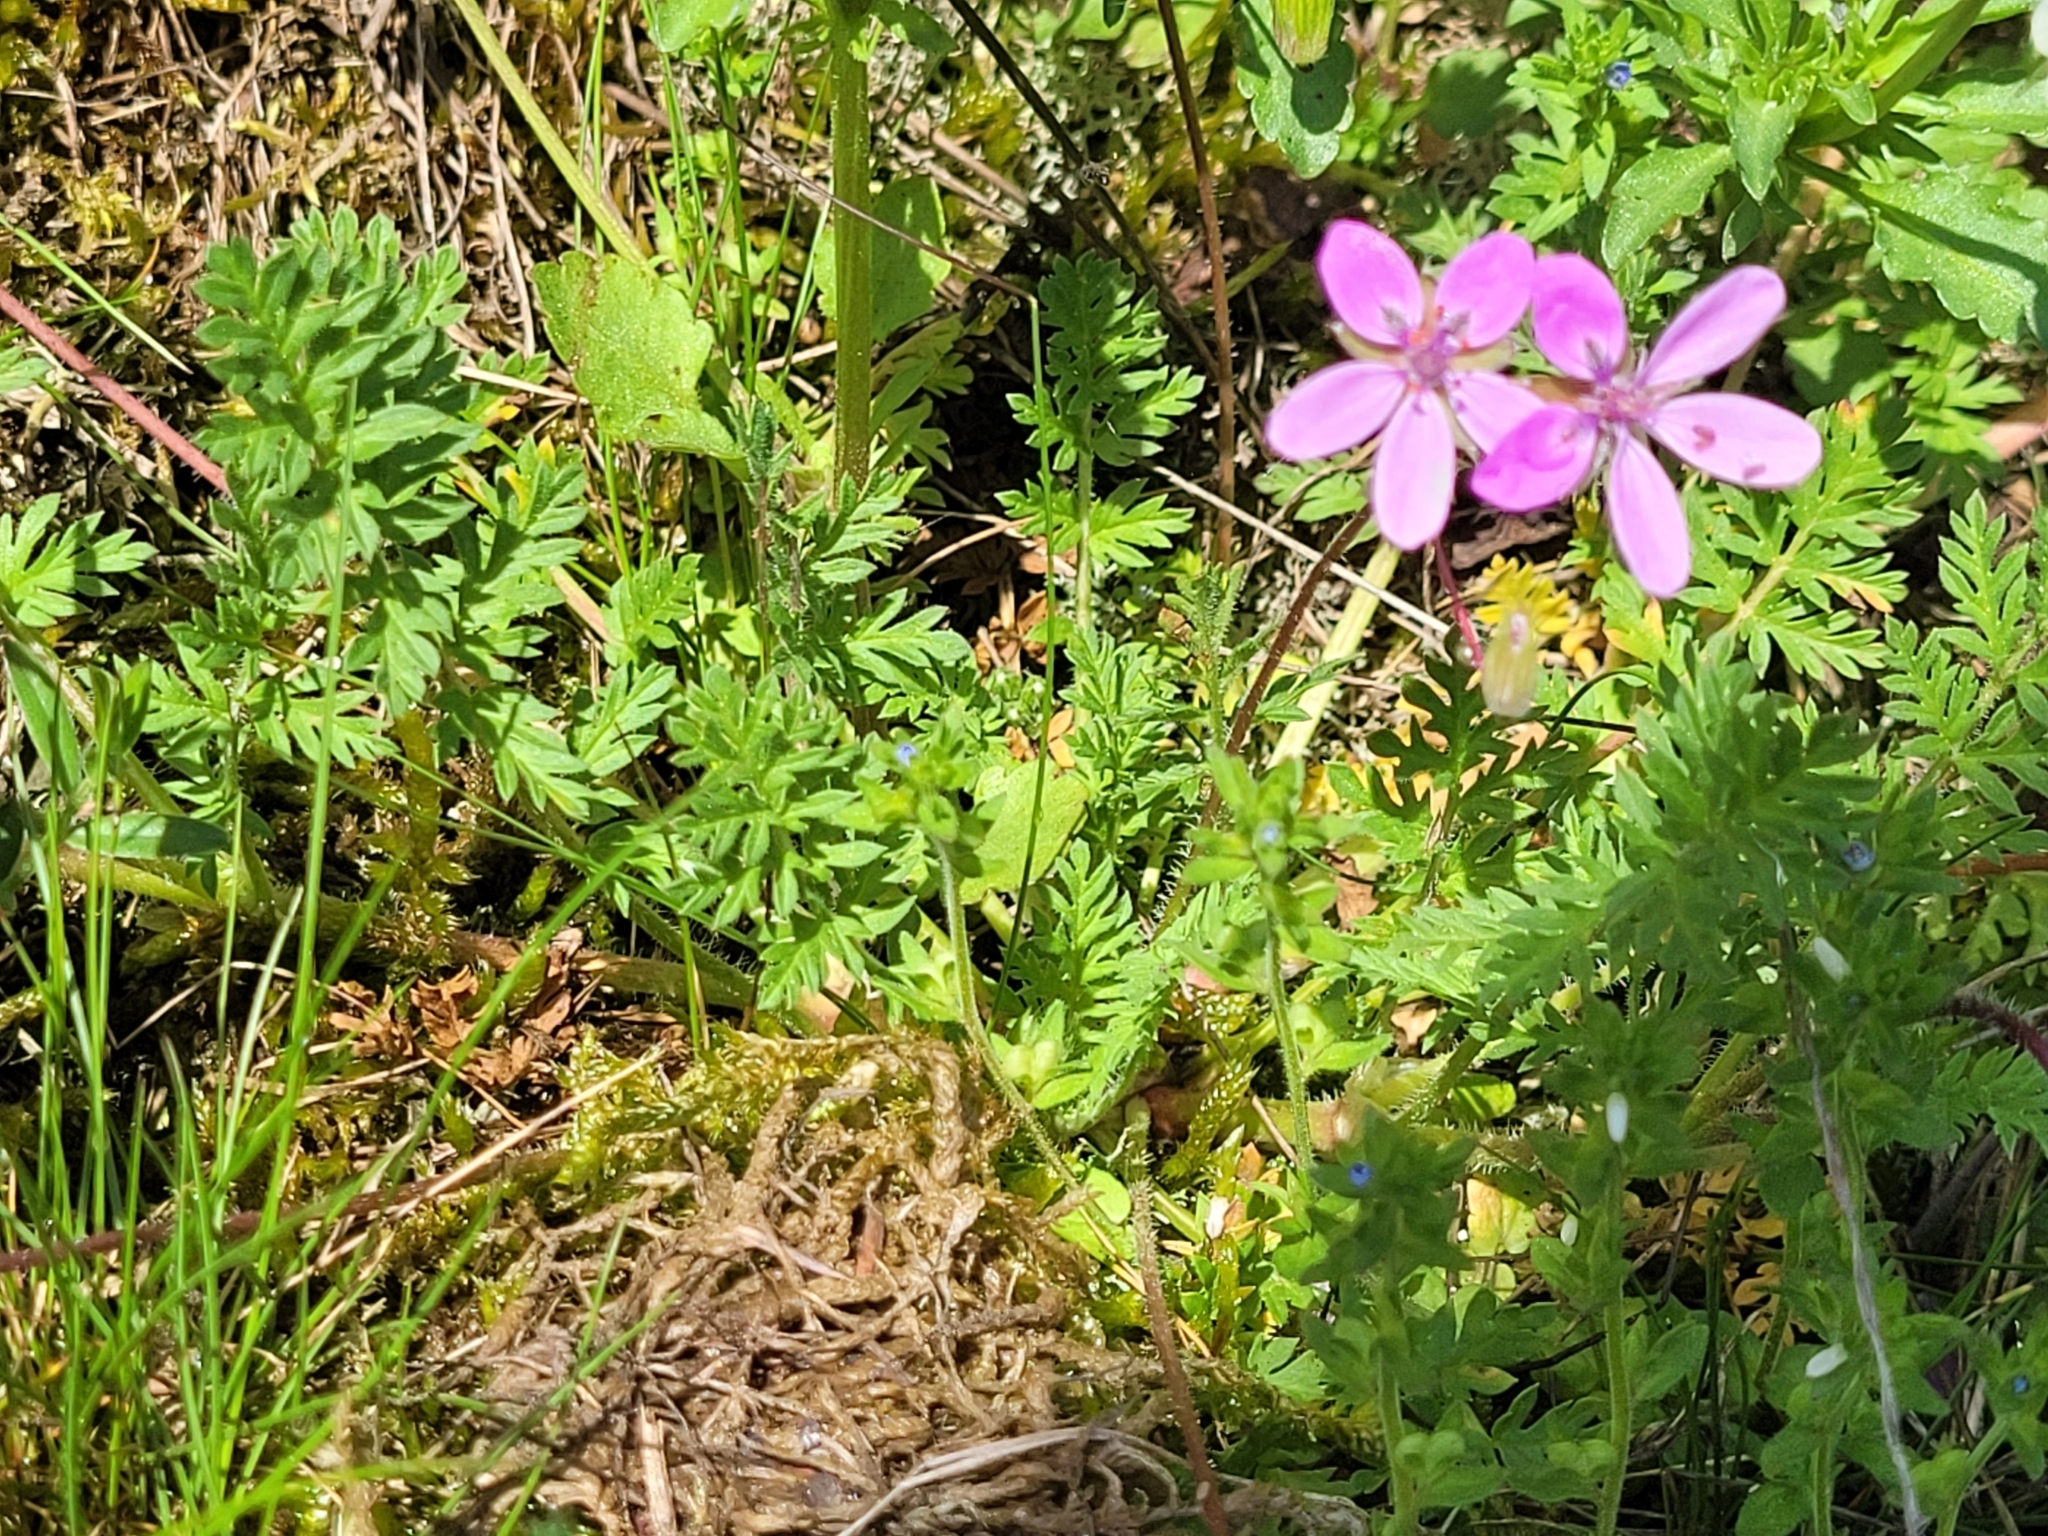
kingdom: Plantae
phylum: Tracheophyta
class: Magnoliopsida
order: Geraniales
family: Geraniaceae
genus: Erodium
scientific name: Erodium cicutarium
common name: Common stork's-bill
